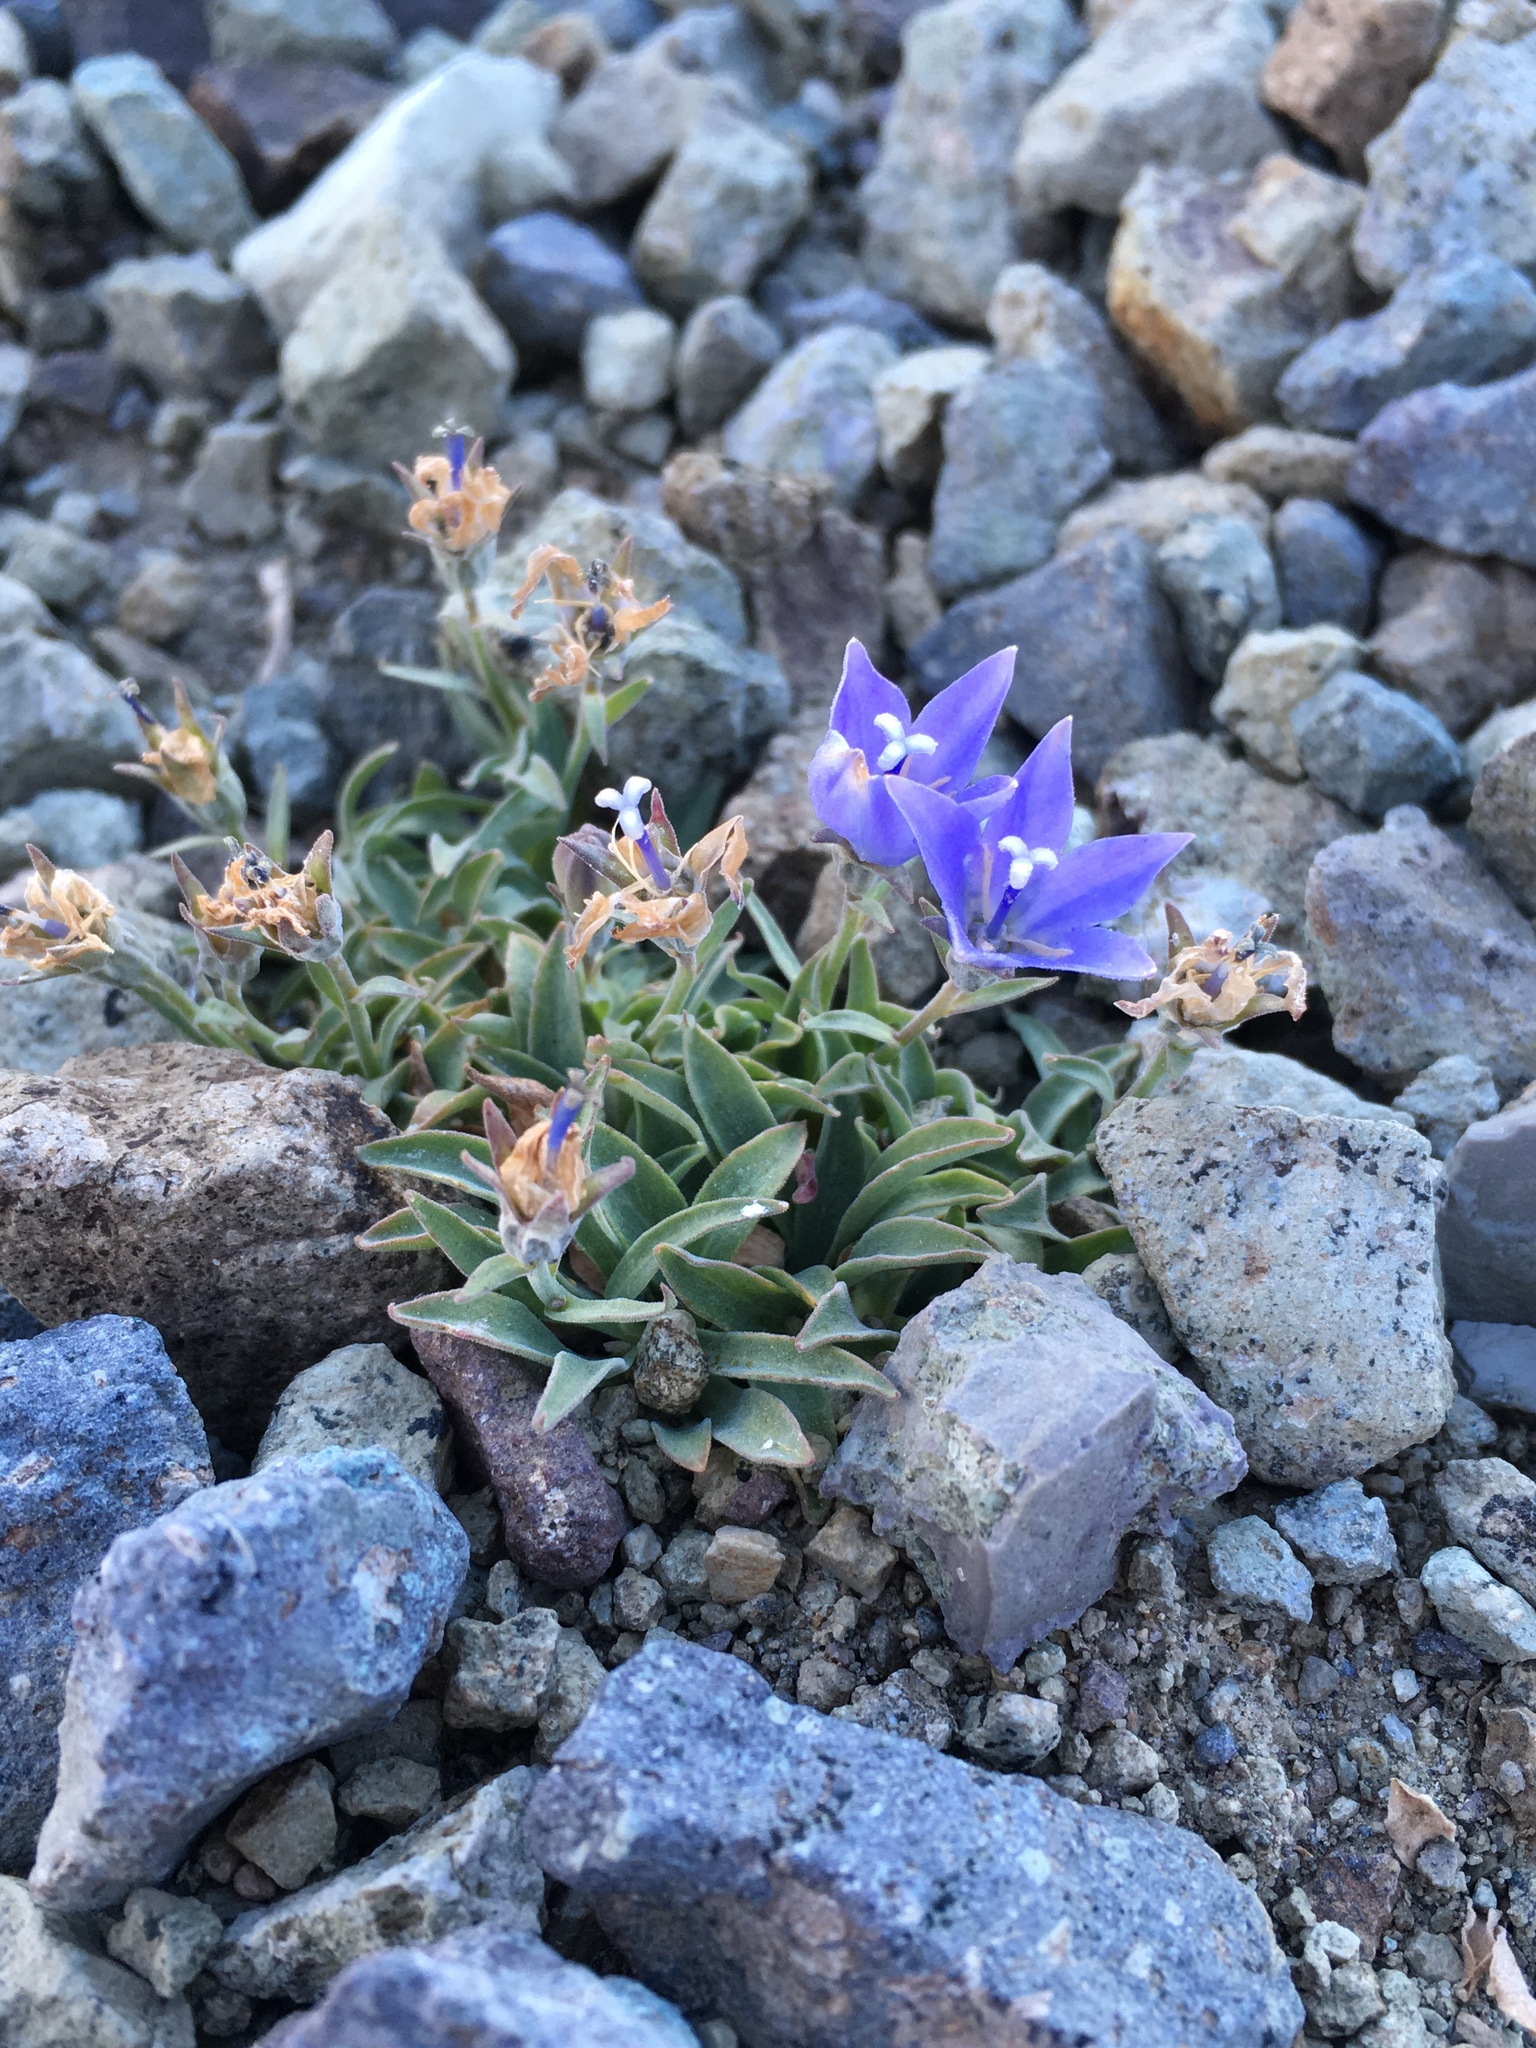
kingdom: Plantae
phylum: Tracheophyta
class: Magnoliopsida
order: Asterales
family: Campanulaceae
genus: Campanula
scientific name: Campanula scabrella
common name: Downy alpine bellflower
